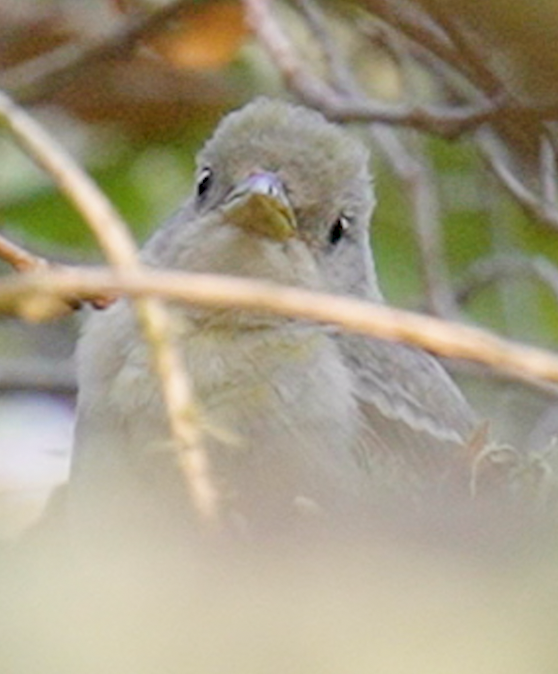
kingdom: Animalia
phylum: Chordata
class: Aves
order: Passeriformes
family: Cardinalidae
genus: Piranga
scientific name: Piranga ludoviciana
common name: Western tanager
